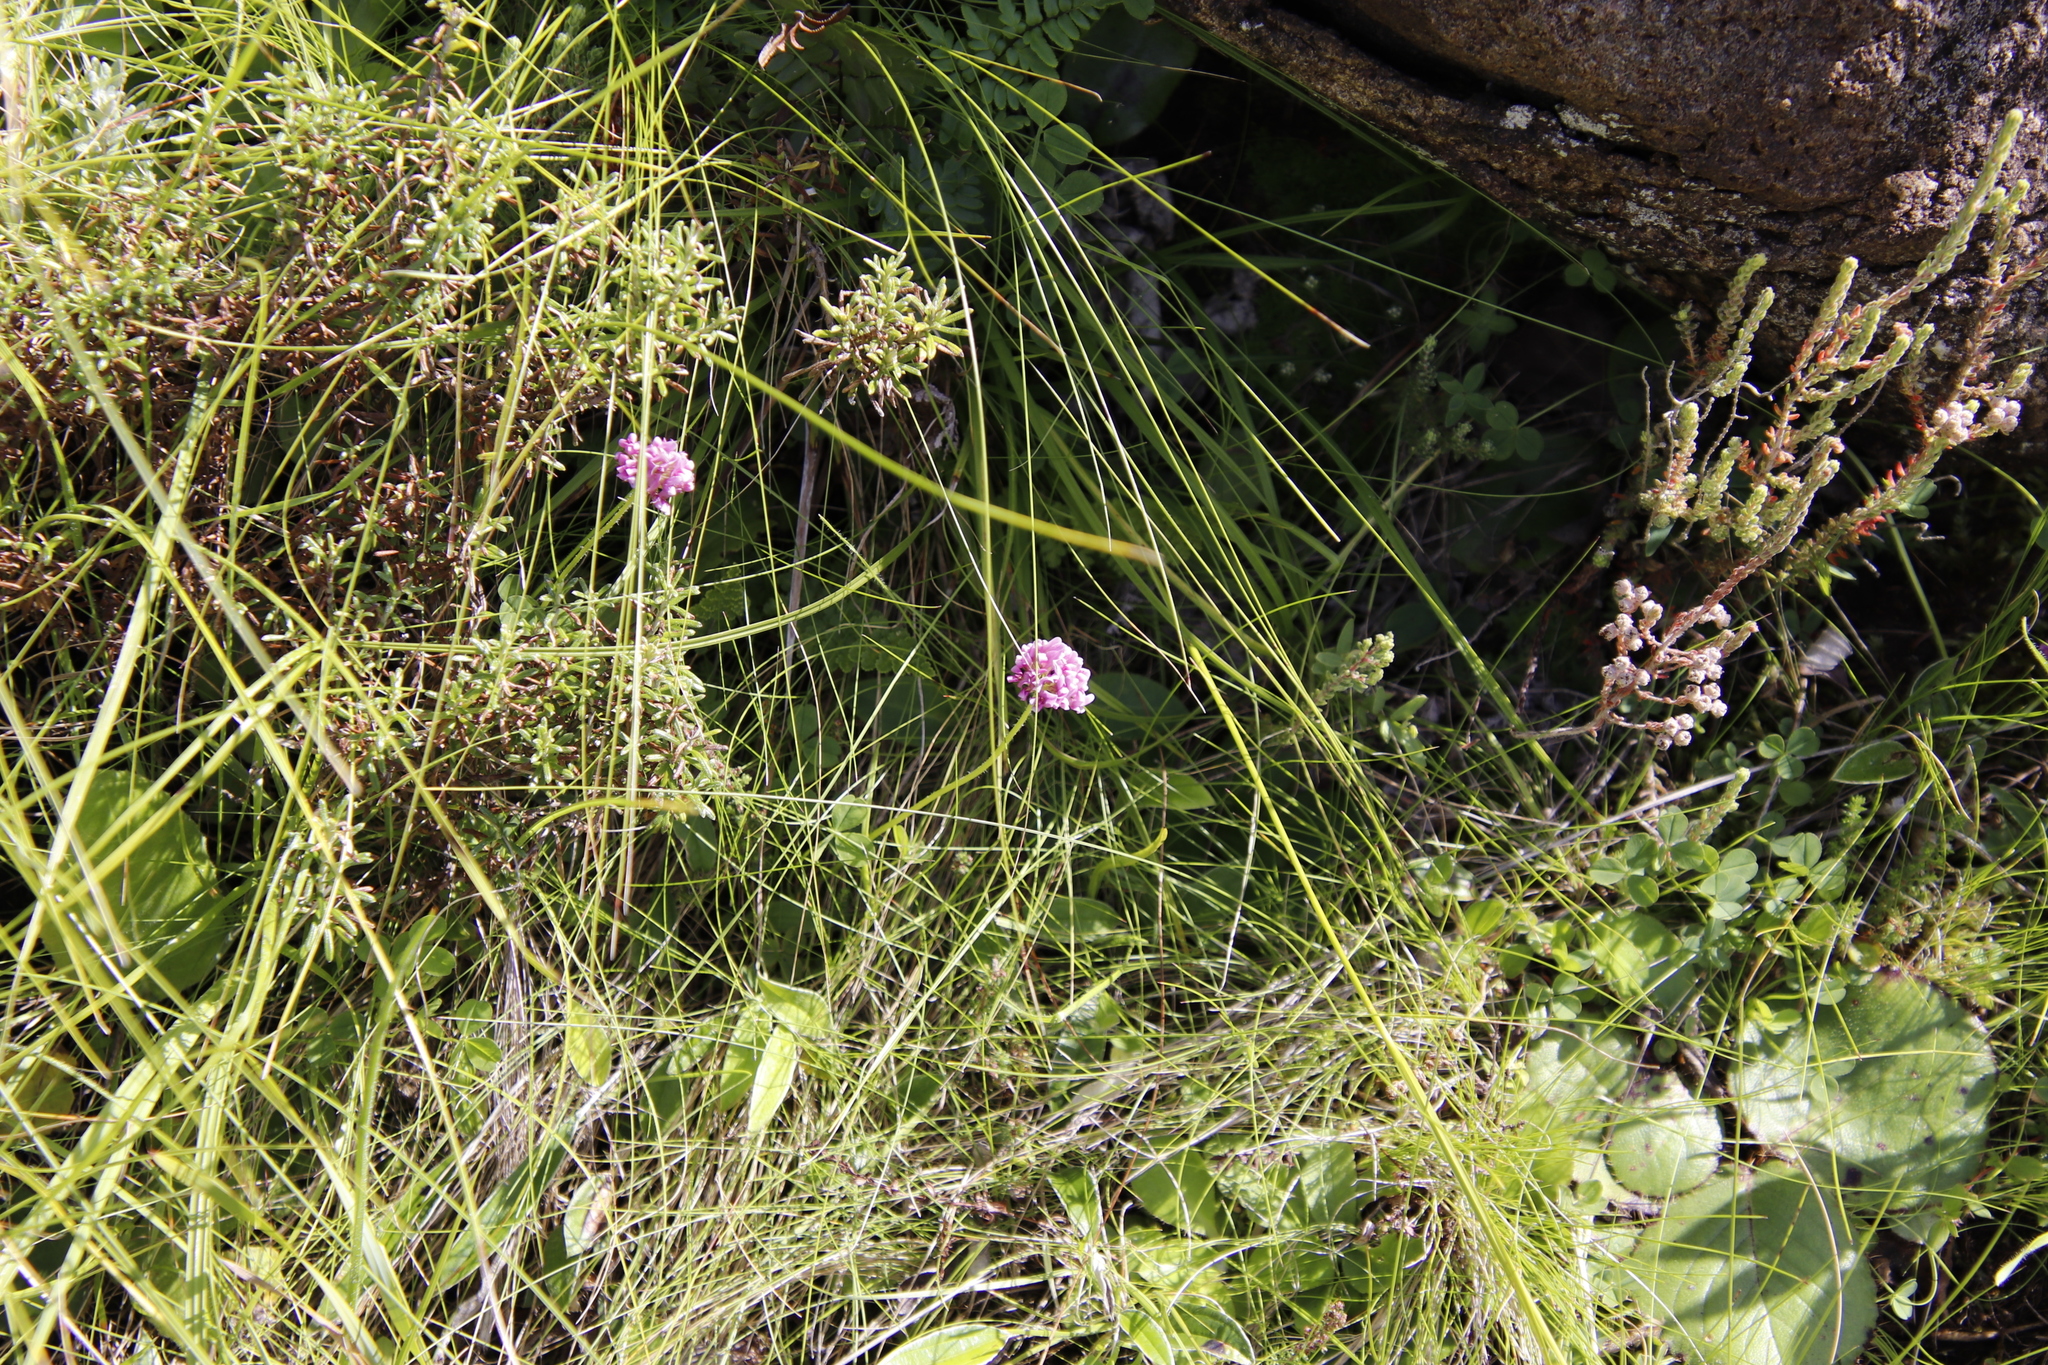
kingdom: Plantae
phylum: Tracheophyta
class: Magnoliopsida
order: Fabales
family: Fabaceae
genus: Trifolium
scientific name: Trifolium burchellianum
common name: Burchell's clover
